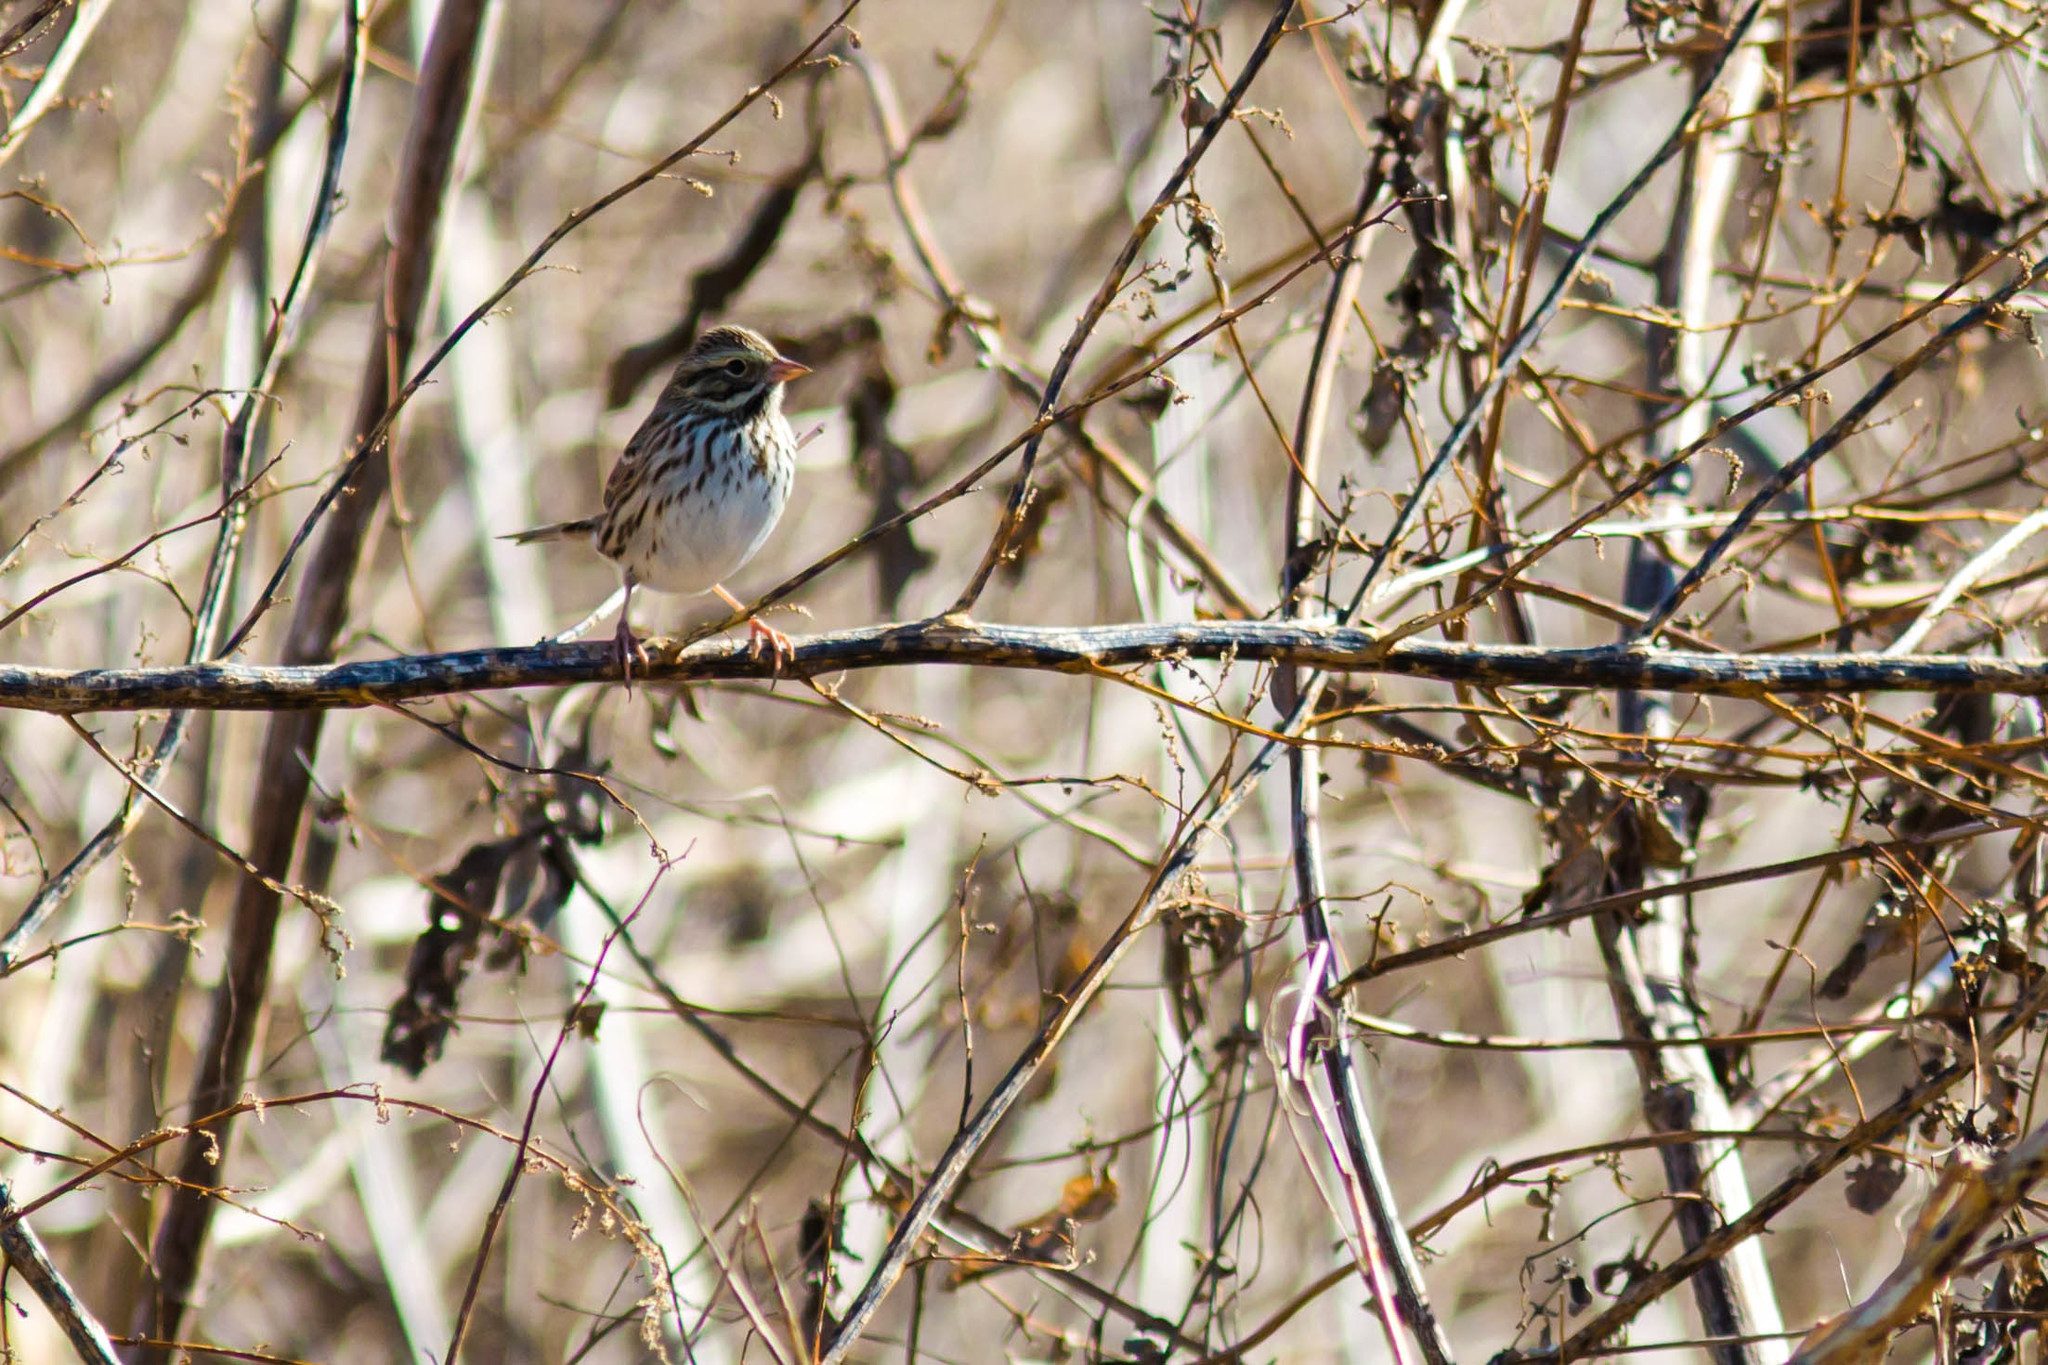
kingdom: Animalia
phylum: Chordata
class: Aves
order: Passeriformes
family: Passerellidae
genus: Passerculus
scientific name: Passerculus sandwichensis
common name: Savannah sparrow
